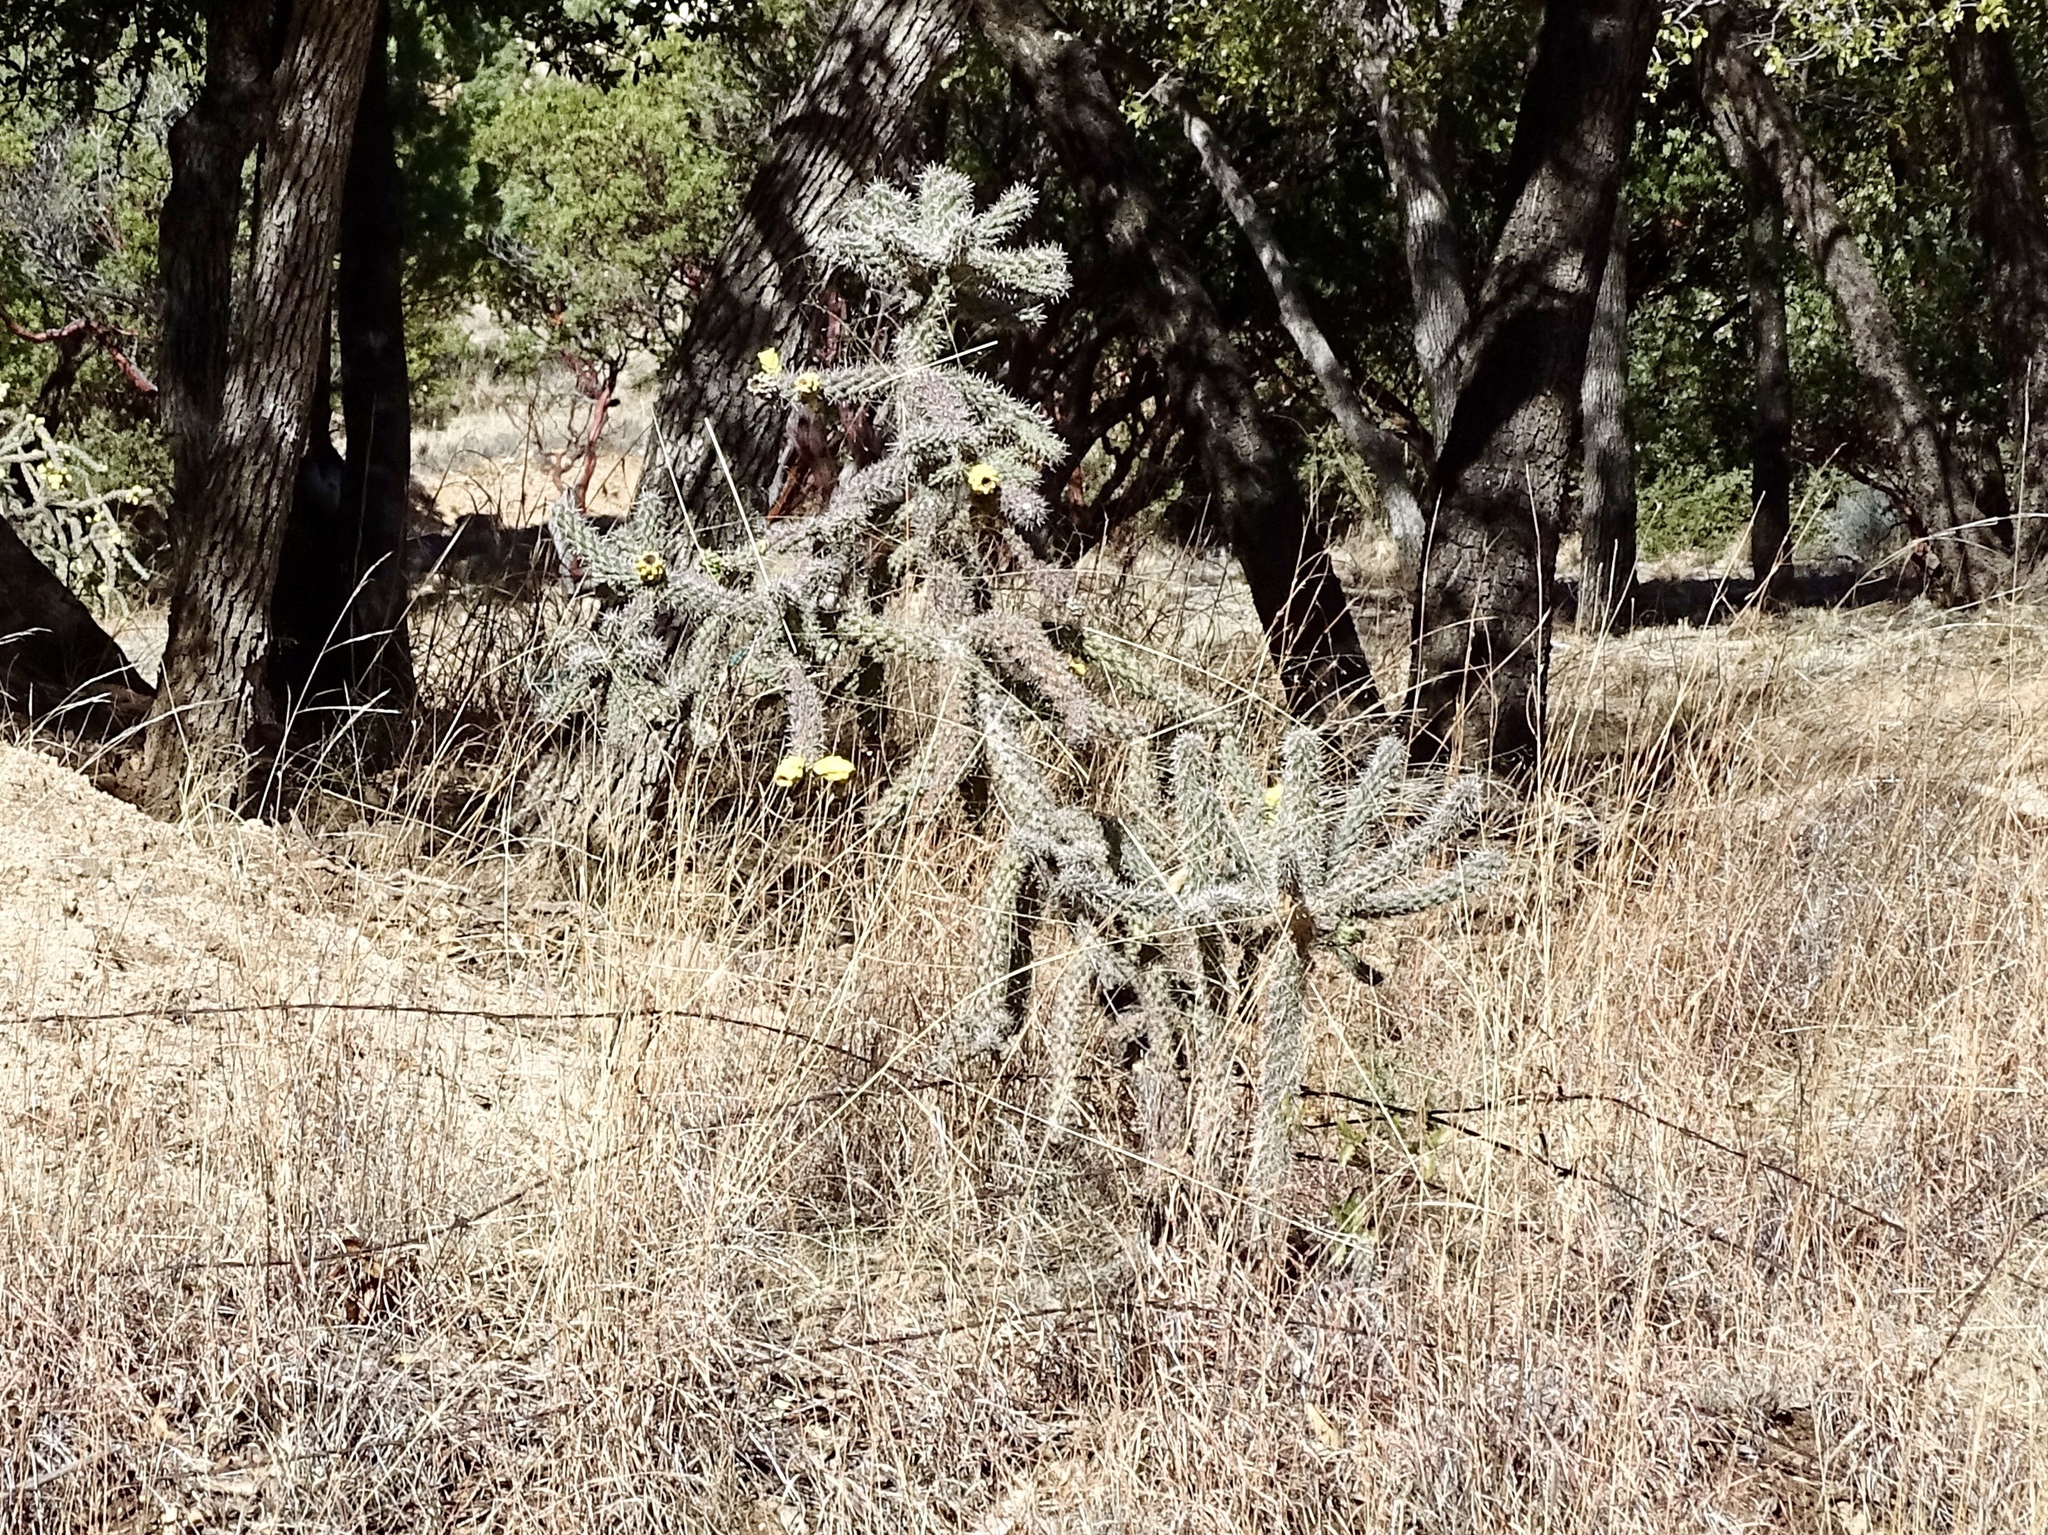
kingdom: Plantae
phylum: Tracheophyta
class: Magnoliopsida
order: Caryophyllales
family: Cactaceae
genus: Cylindropuntia
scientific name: Cylindropuntia imbricata
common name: Candelabrum cactus
